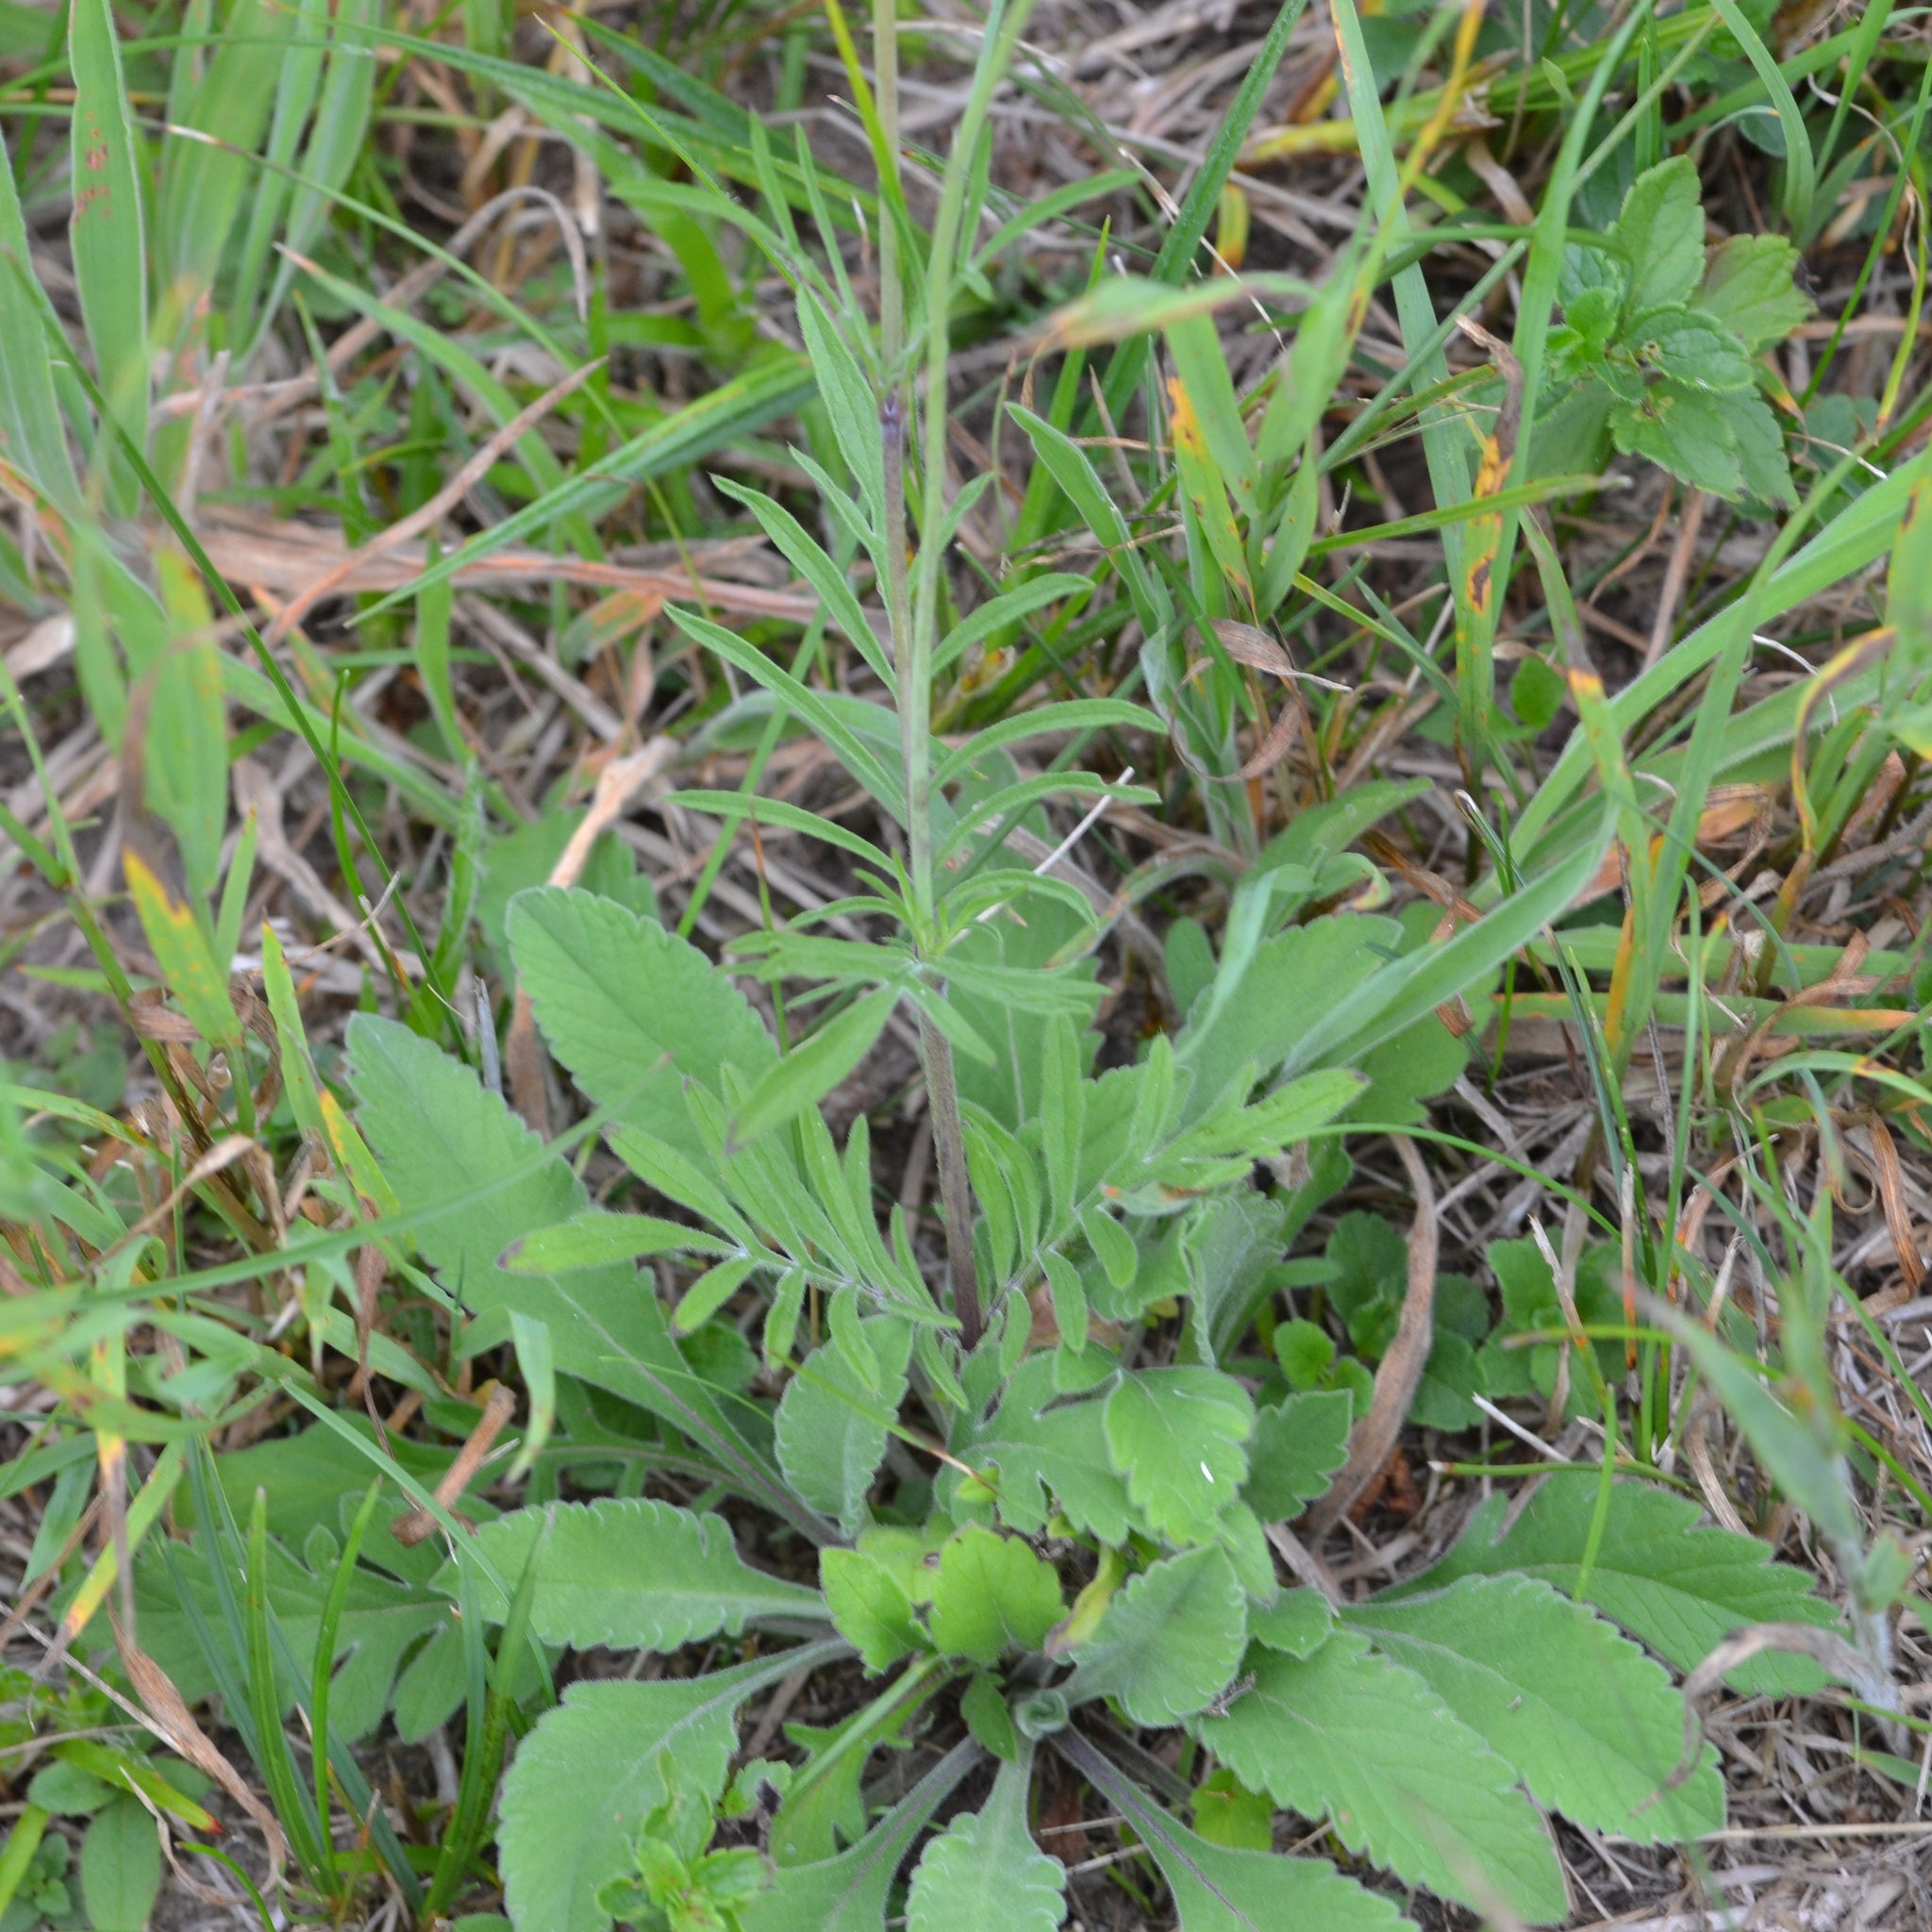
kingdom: Plantae
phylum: Tracheophyta
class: Magnoliopsida
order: Dipsacales
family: Caprifoliaceae
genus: Scabiosa
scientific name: Scabiosa ochroleuca
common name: Cream pincushions
